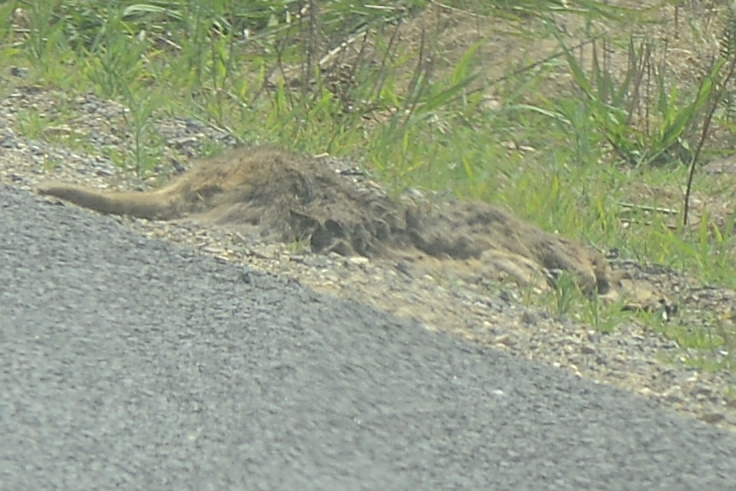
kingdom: Animalia
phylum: Chordata
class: Mammalia
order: Diprotodontia
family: Macropodidae
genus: Notamacropus
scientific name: Notamacropus rufogriseus
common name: Red-necked wallaby
